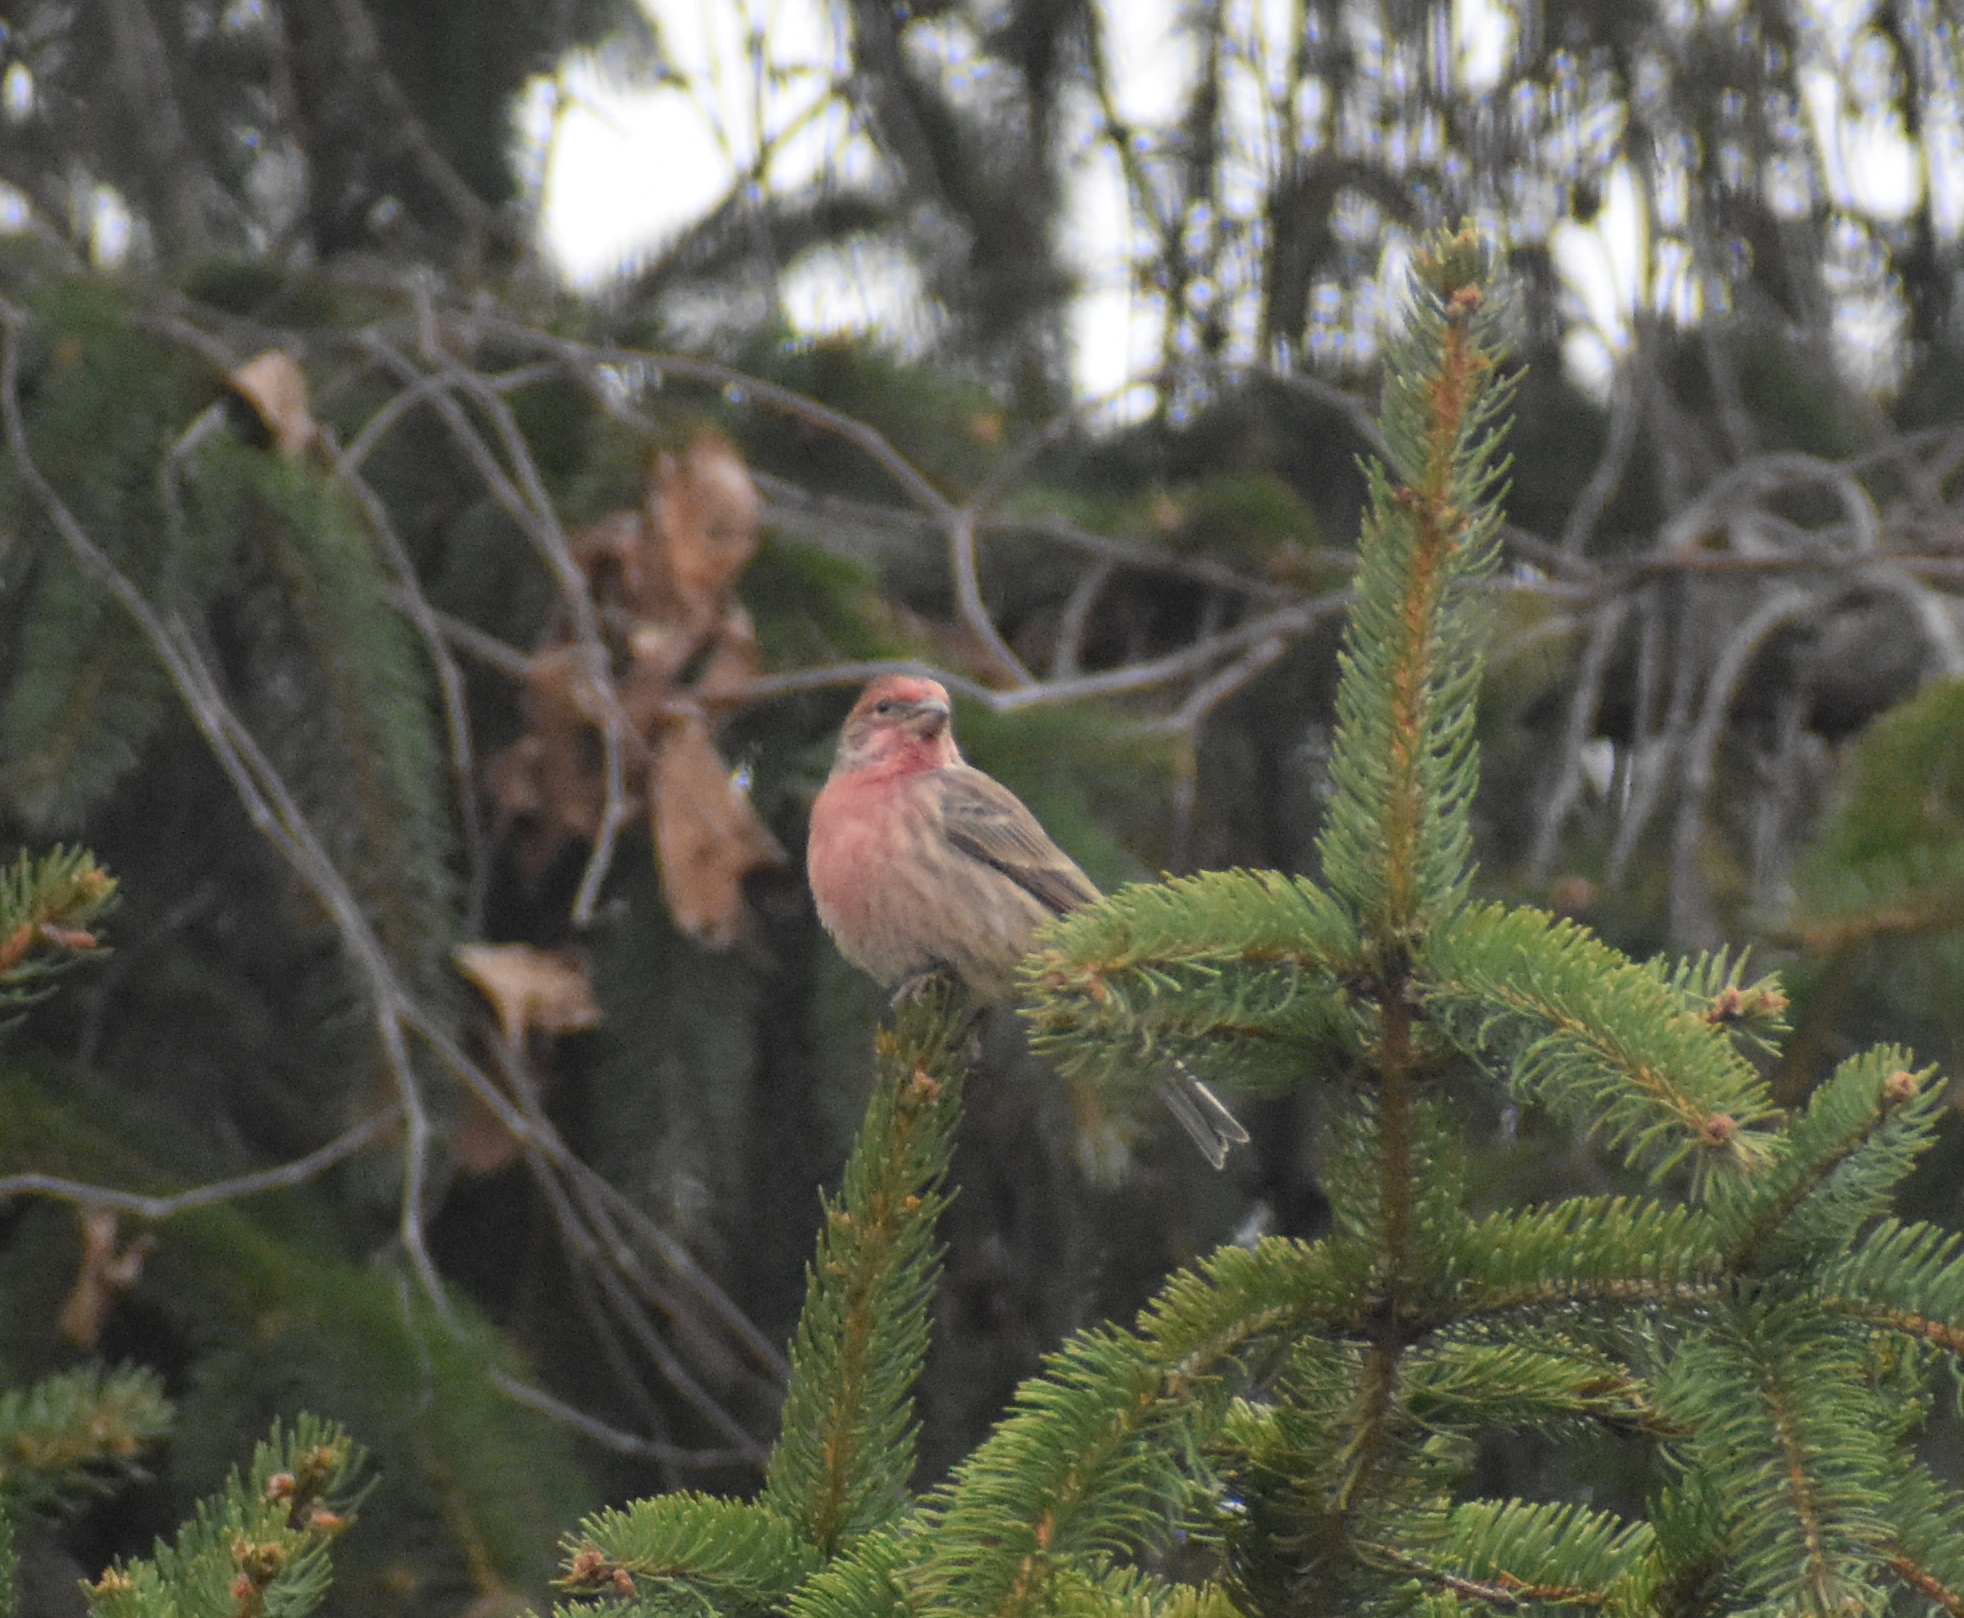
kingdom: Animalia
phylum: Chordata
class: Aves
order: Passeriformes
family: Fringillidae
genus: Haemorhous
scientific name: Haemorhous mexicanus
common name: House finch
